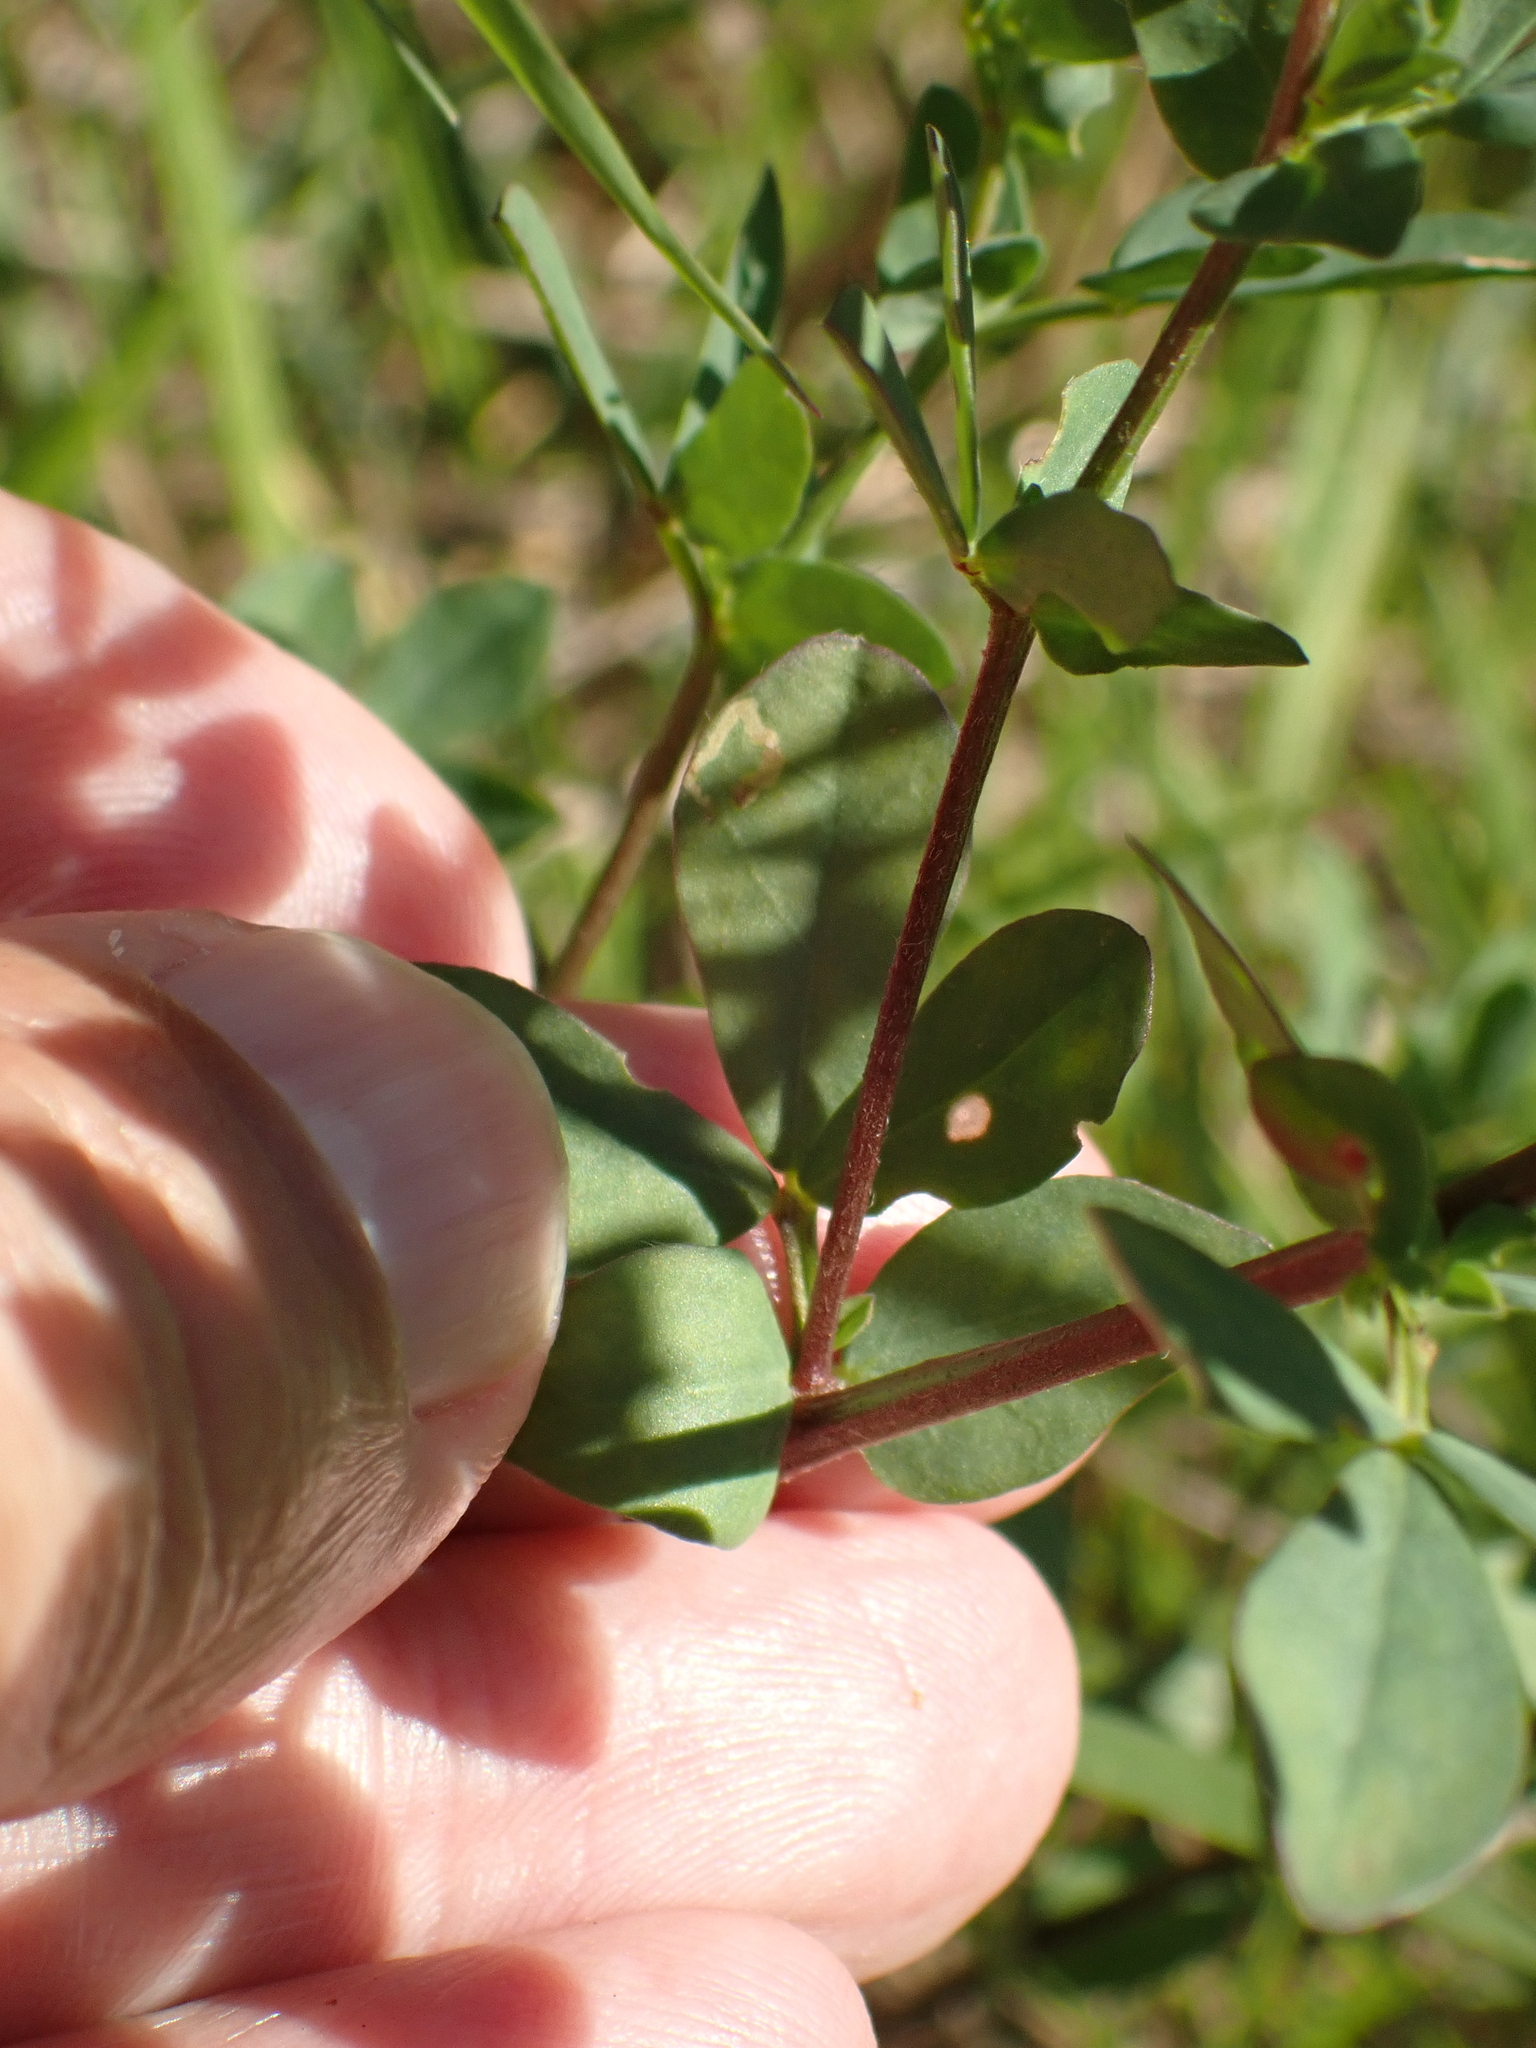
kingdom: Plantae
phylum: Tracheophyta
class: Magnoliopsida
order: Fabales
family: Fabaceae
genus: Lotus
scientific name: Lotus corniculatus
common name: Common bird's-foot-trefoil
